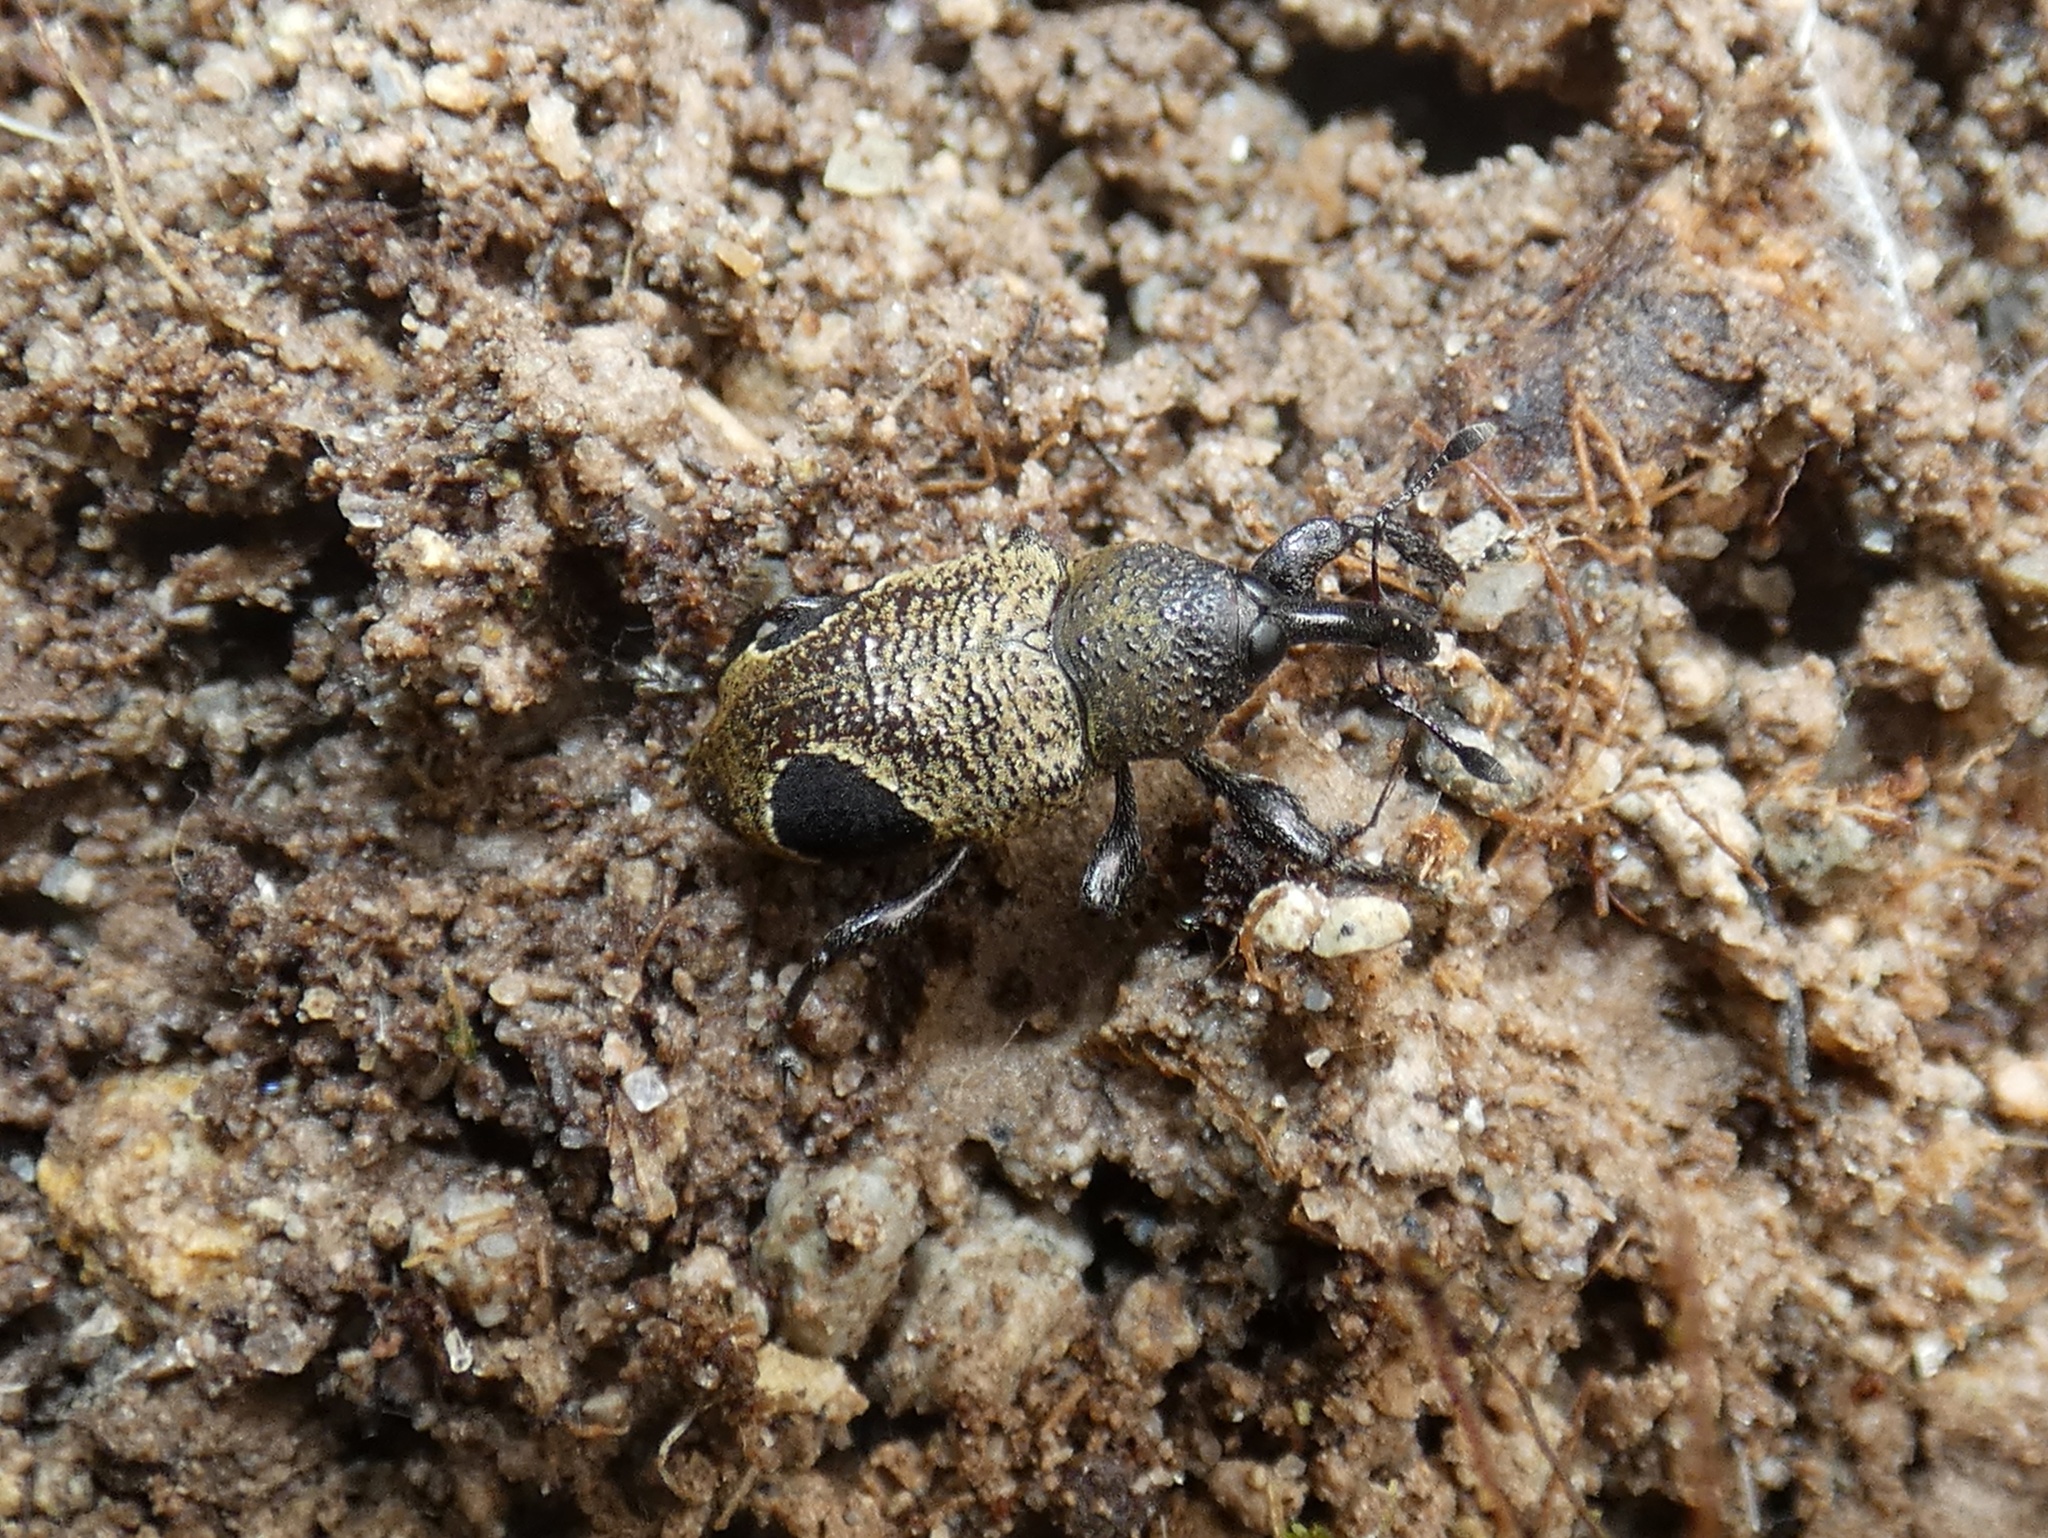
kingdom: Animalia
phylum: Arthropoda
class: Insecta
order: Coleoptera
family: Curculionidae
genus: Heilipodus
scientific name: Heilipodus nigrooculatus
